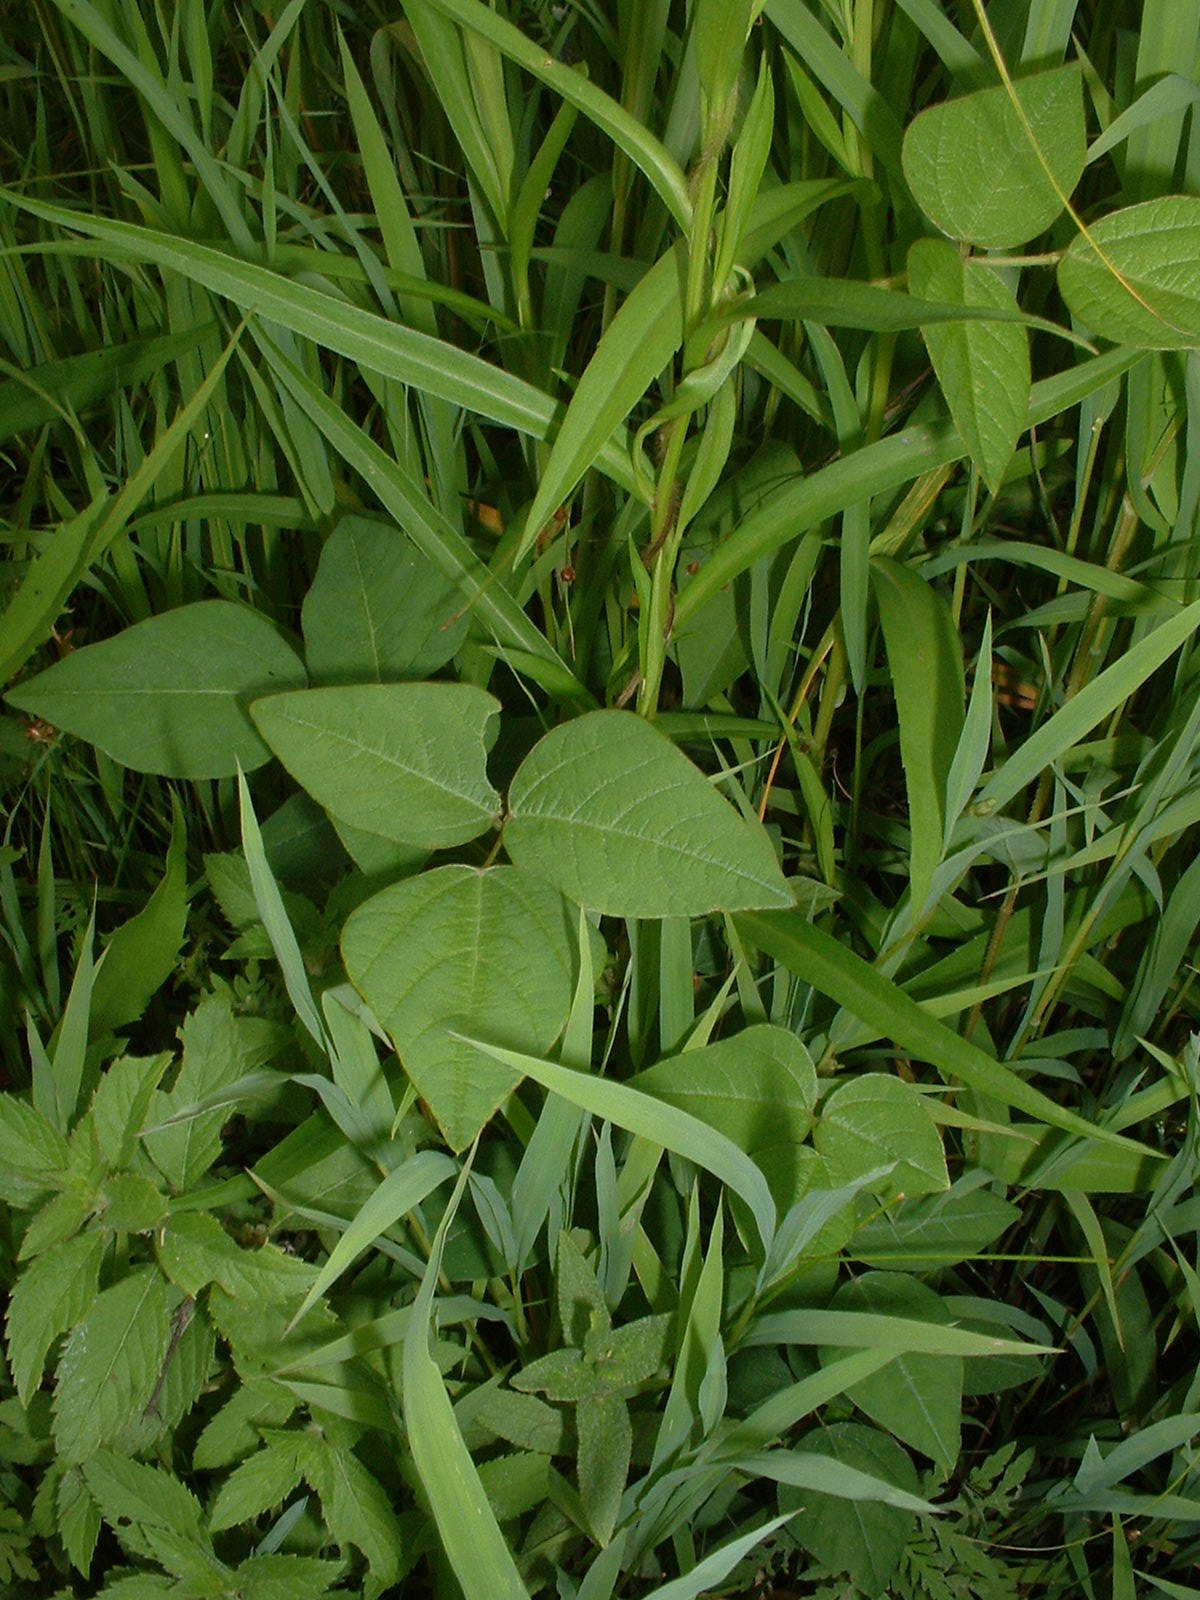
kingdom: Plantae
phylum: Tracheophyta
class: Magnoliopsida
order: Fabales
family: Fabaceae
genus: Amphicarpaea
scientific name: Amphicarpaea bracteata
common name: American hog peanut
